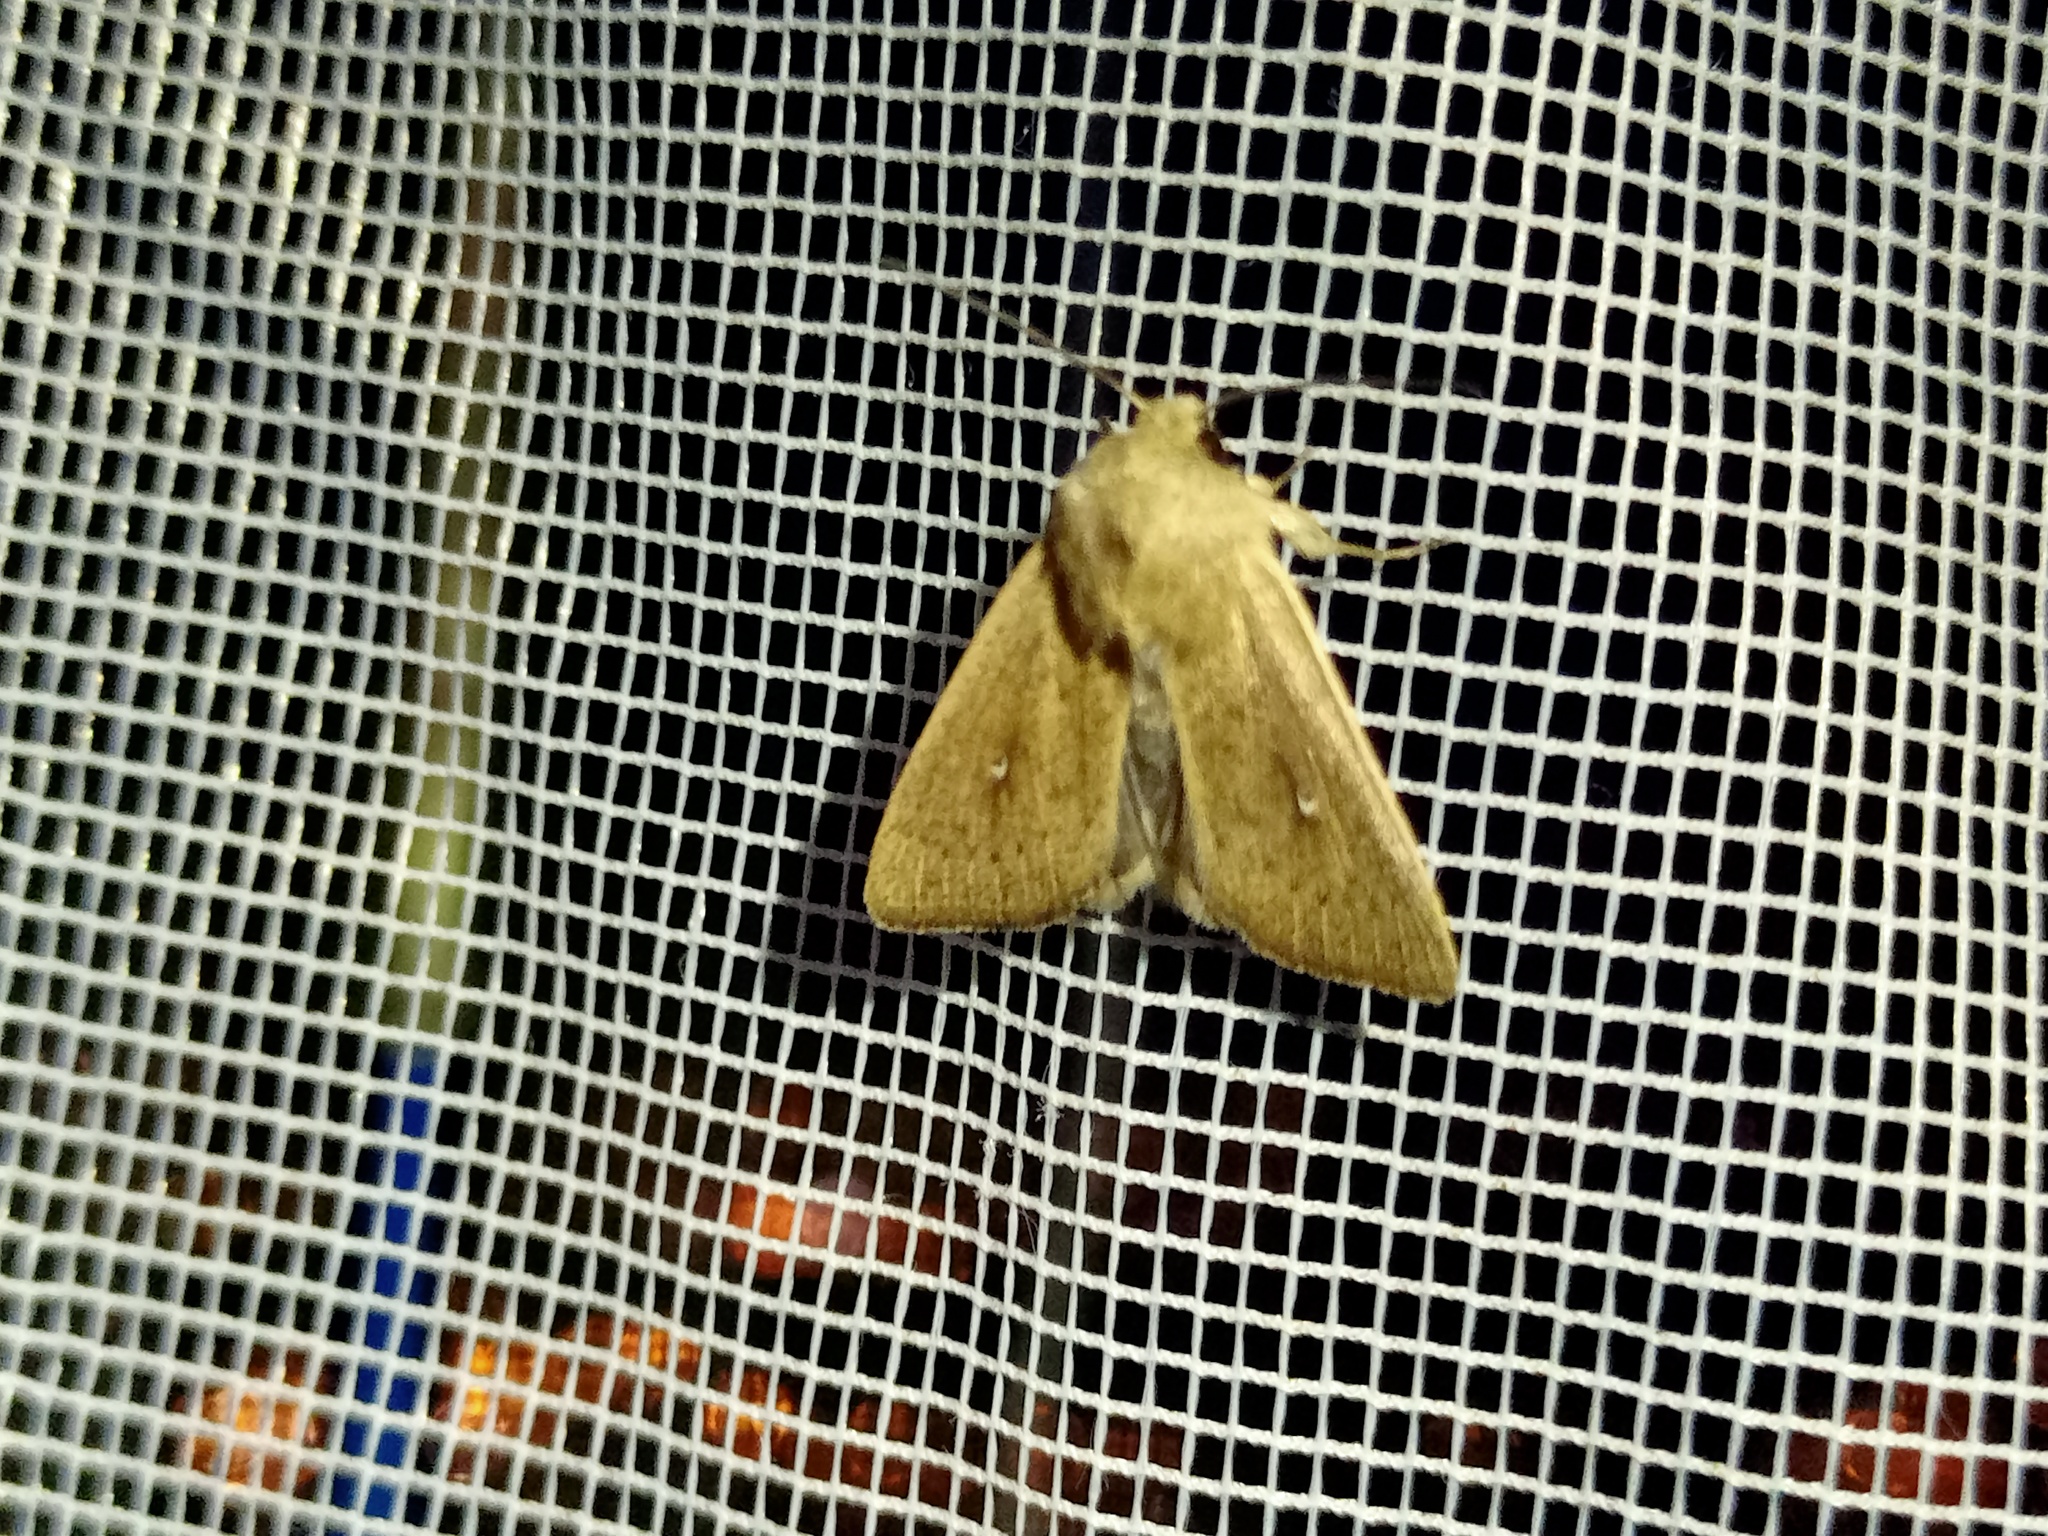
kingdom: Animalia
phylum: Arthropoda
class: Insecta
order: Lepidoptera
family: Noctuidae
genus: Mythimna
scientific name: Mythimna sicula
